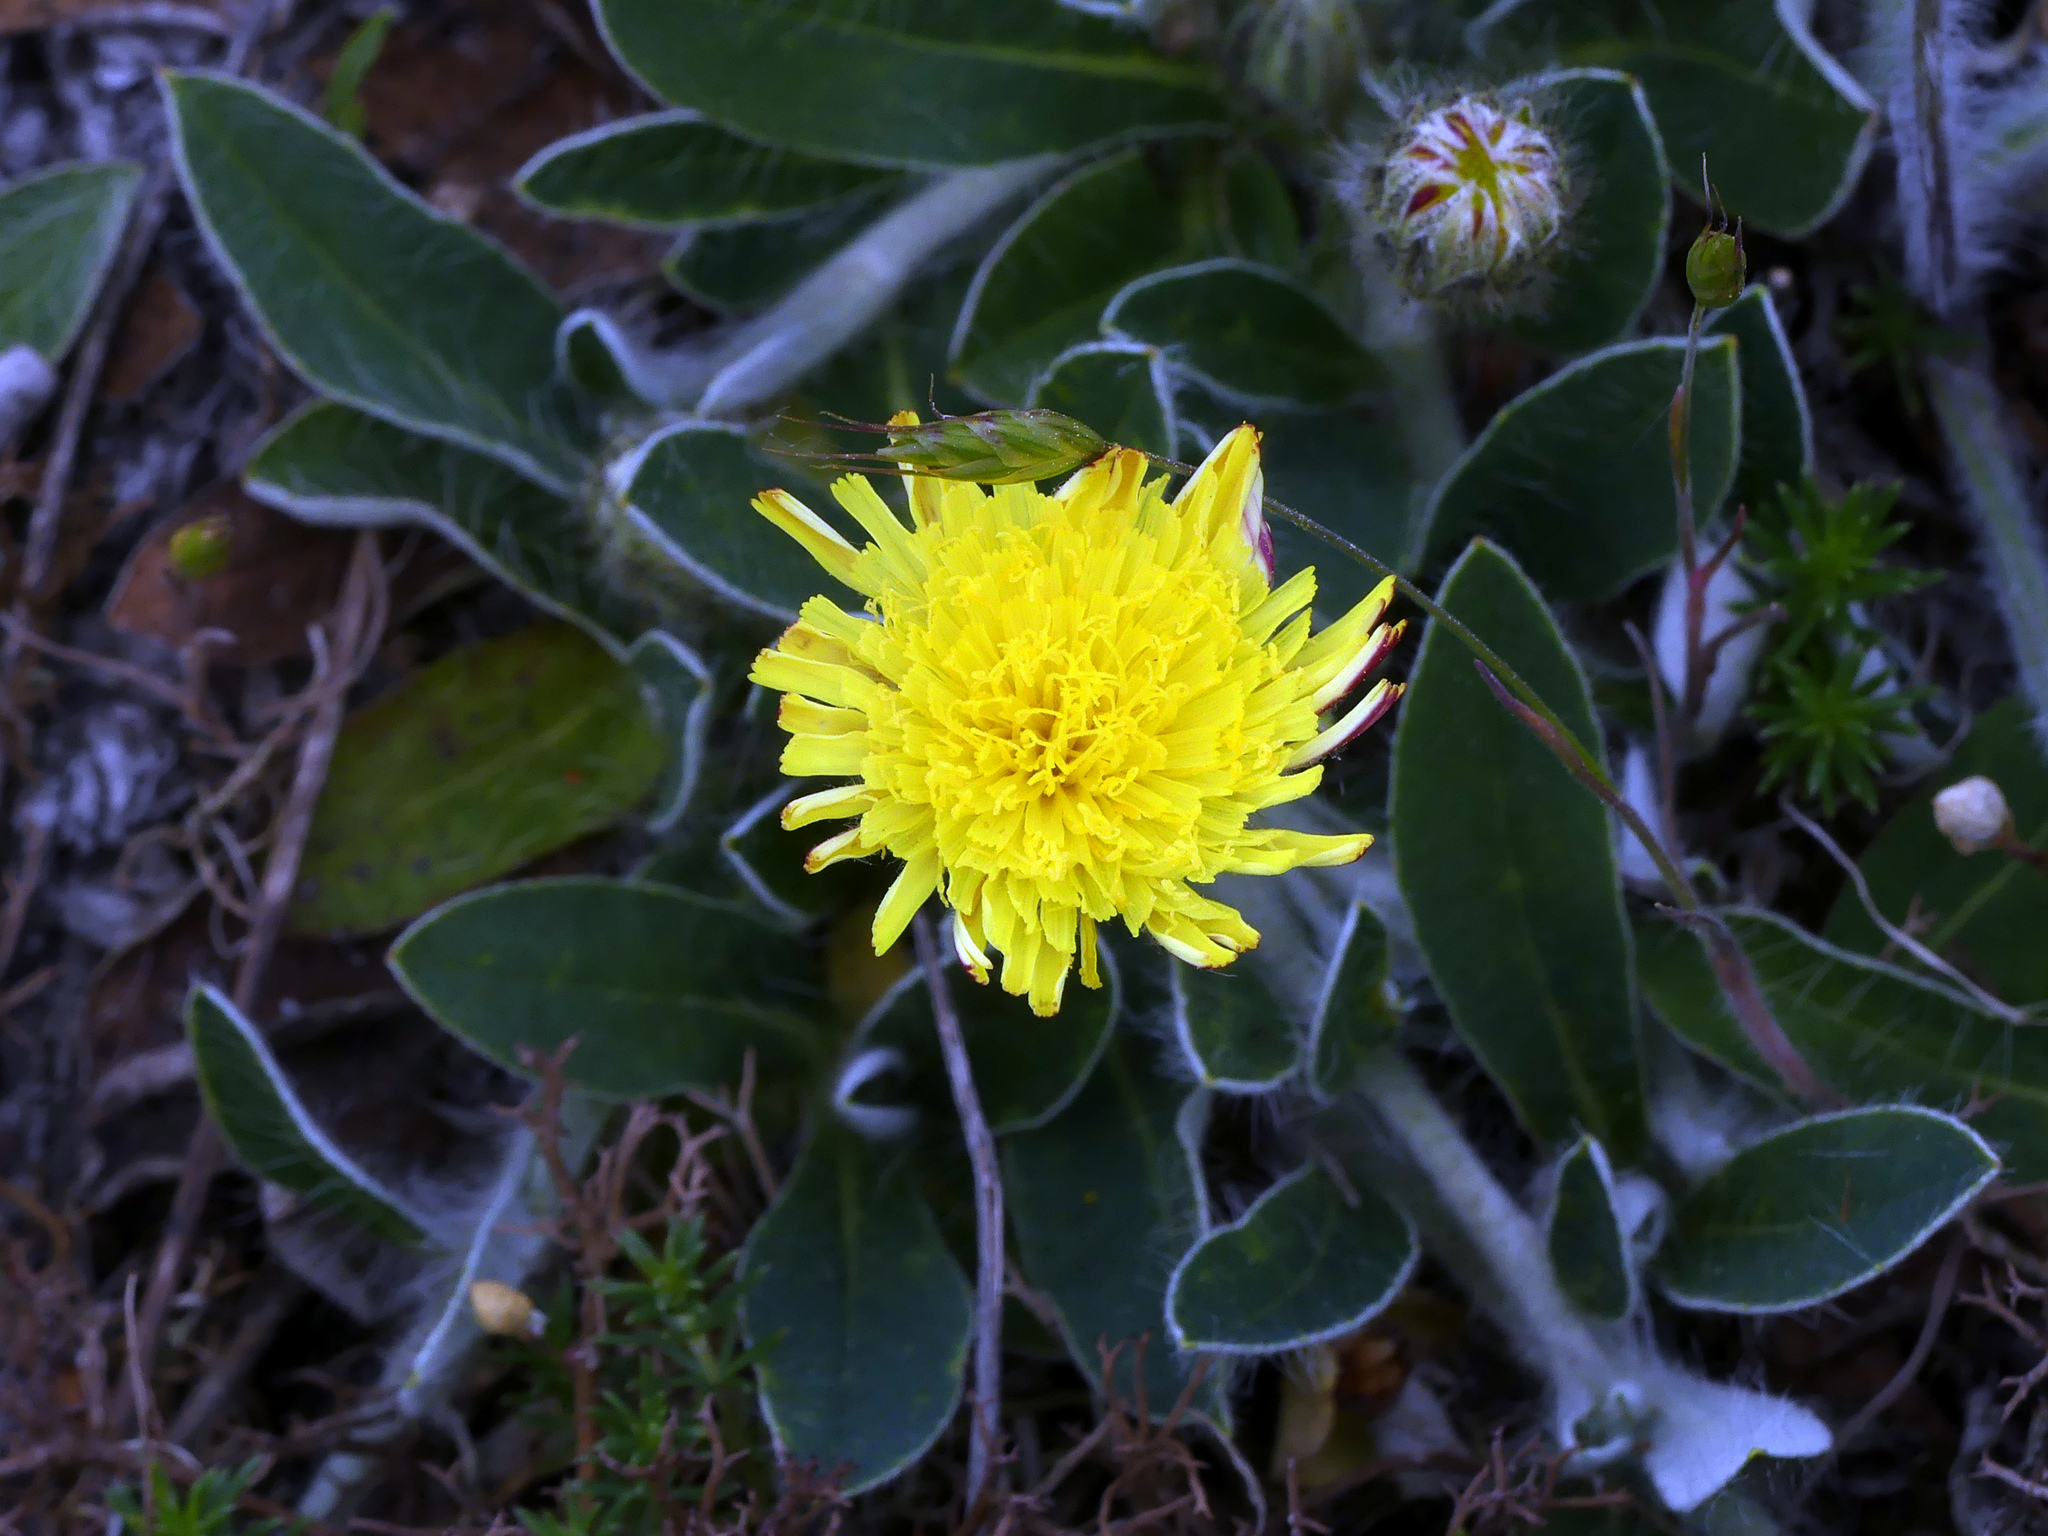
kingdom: Plantae
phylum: Tracheophyta
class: Magnoliopsida
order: Asterales
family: Asteraceae
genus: Pilosella
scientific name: Pilosella officinarum
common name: Mouse-ear hawkweed
